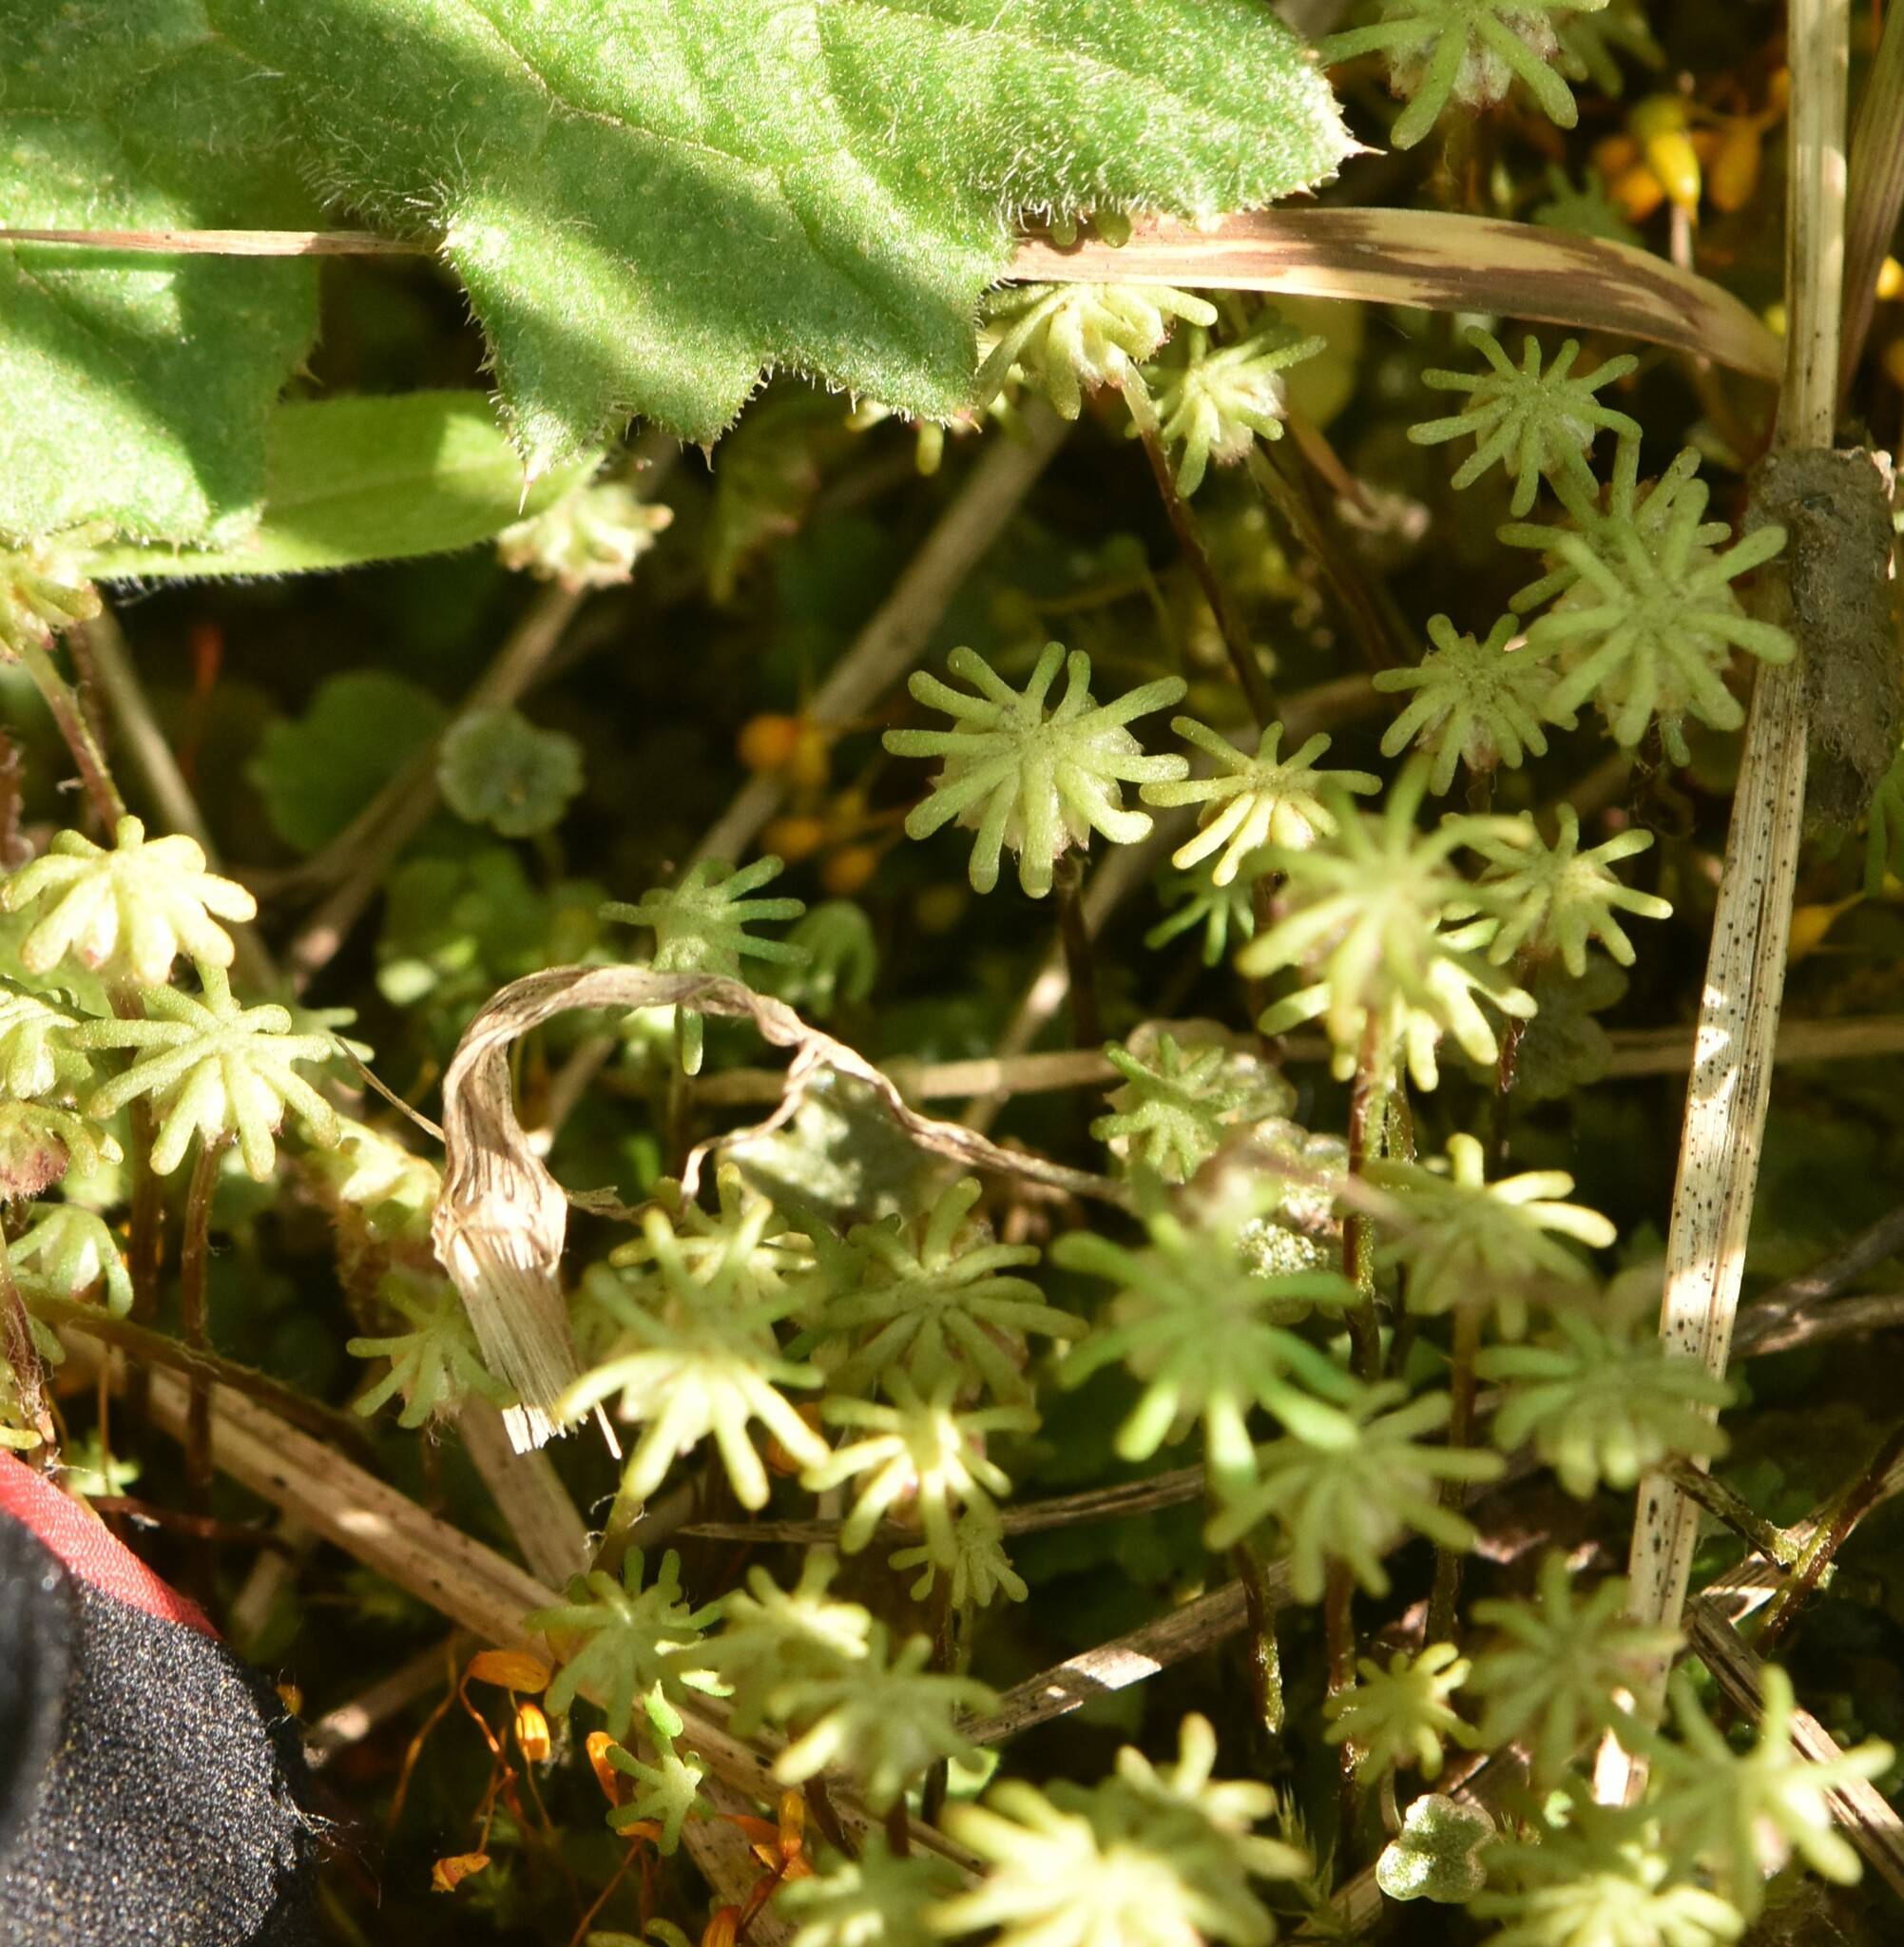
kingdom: Plantae
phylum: Marchantiophyta
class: Marchantiopsida
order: Marchantiales
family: Marchantiaceae
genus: Marchantia
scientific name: Marchantia polymorpha
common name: Common liverwort
